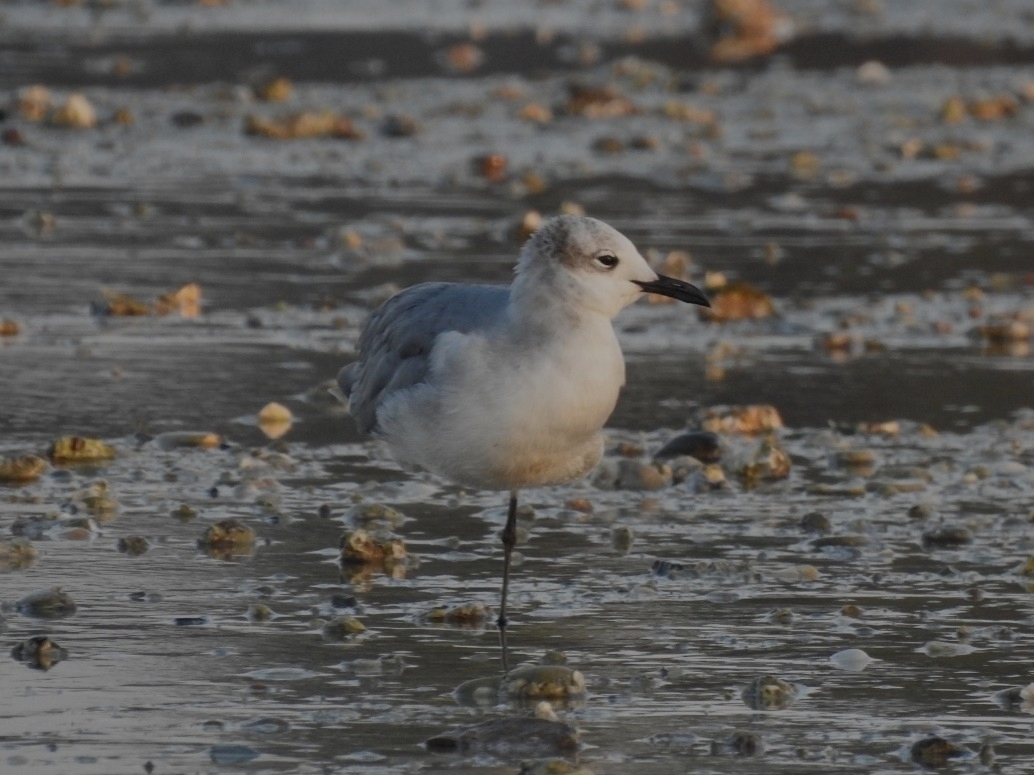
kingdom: Animalia
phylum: Chordata
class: Aves
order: Charadriiformes
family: Laridae
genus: Leucophaeus
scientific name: Leucophaeus atricilla
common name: Laughing gull
